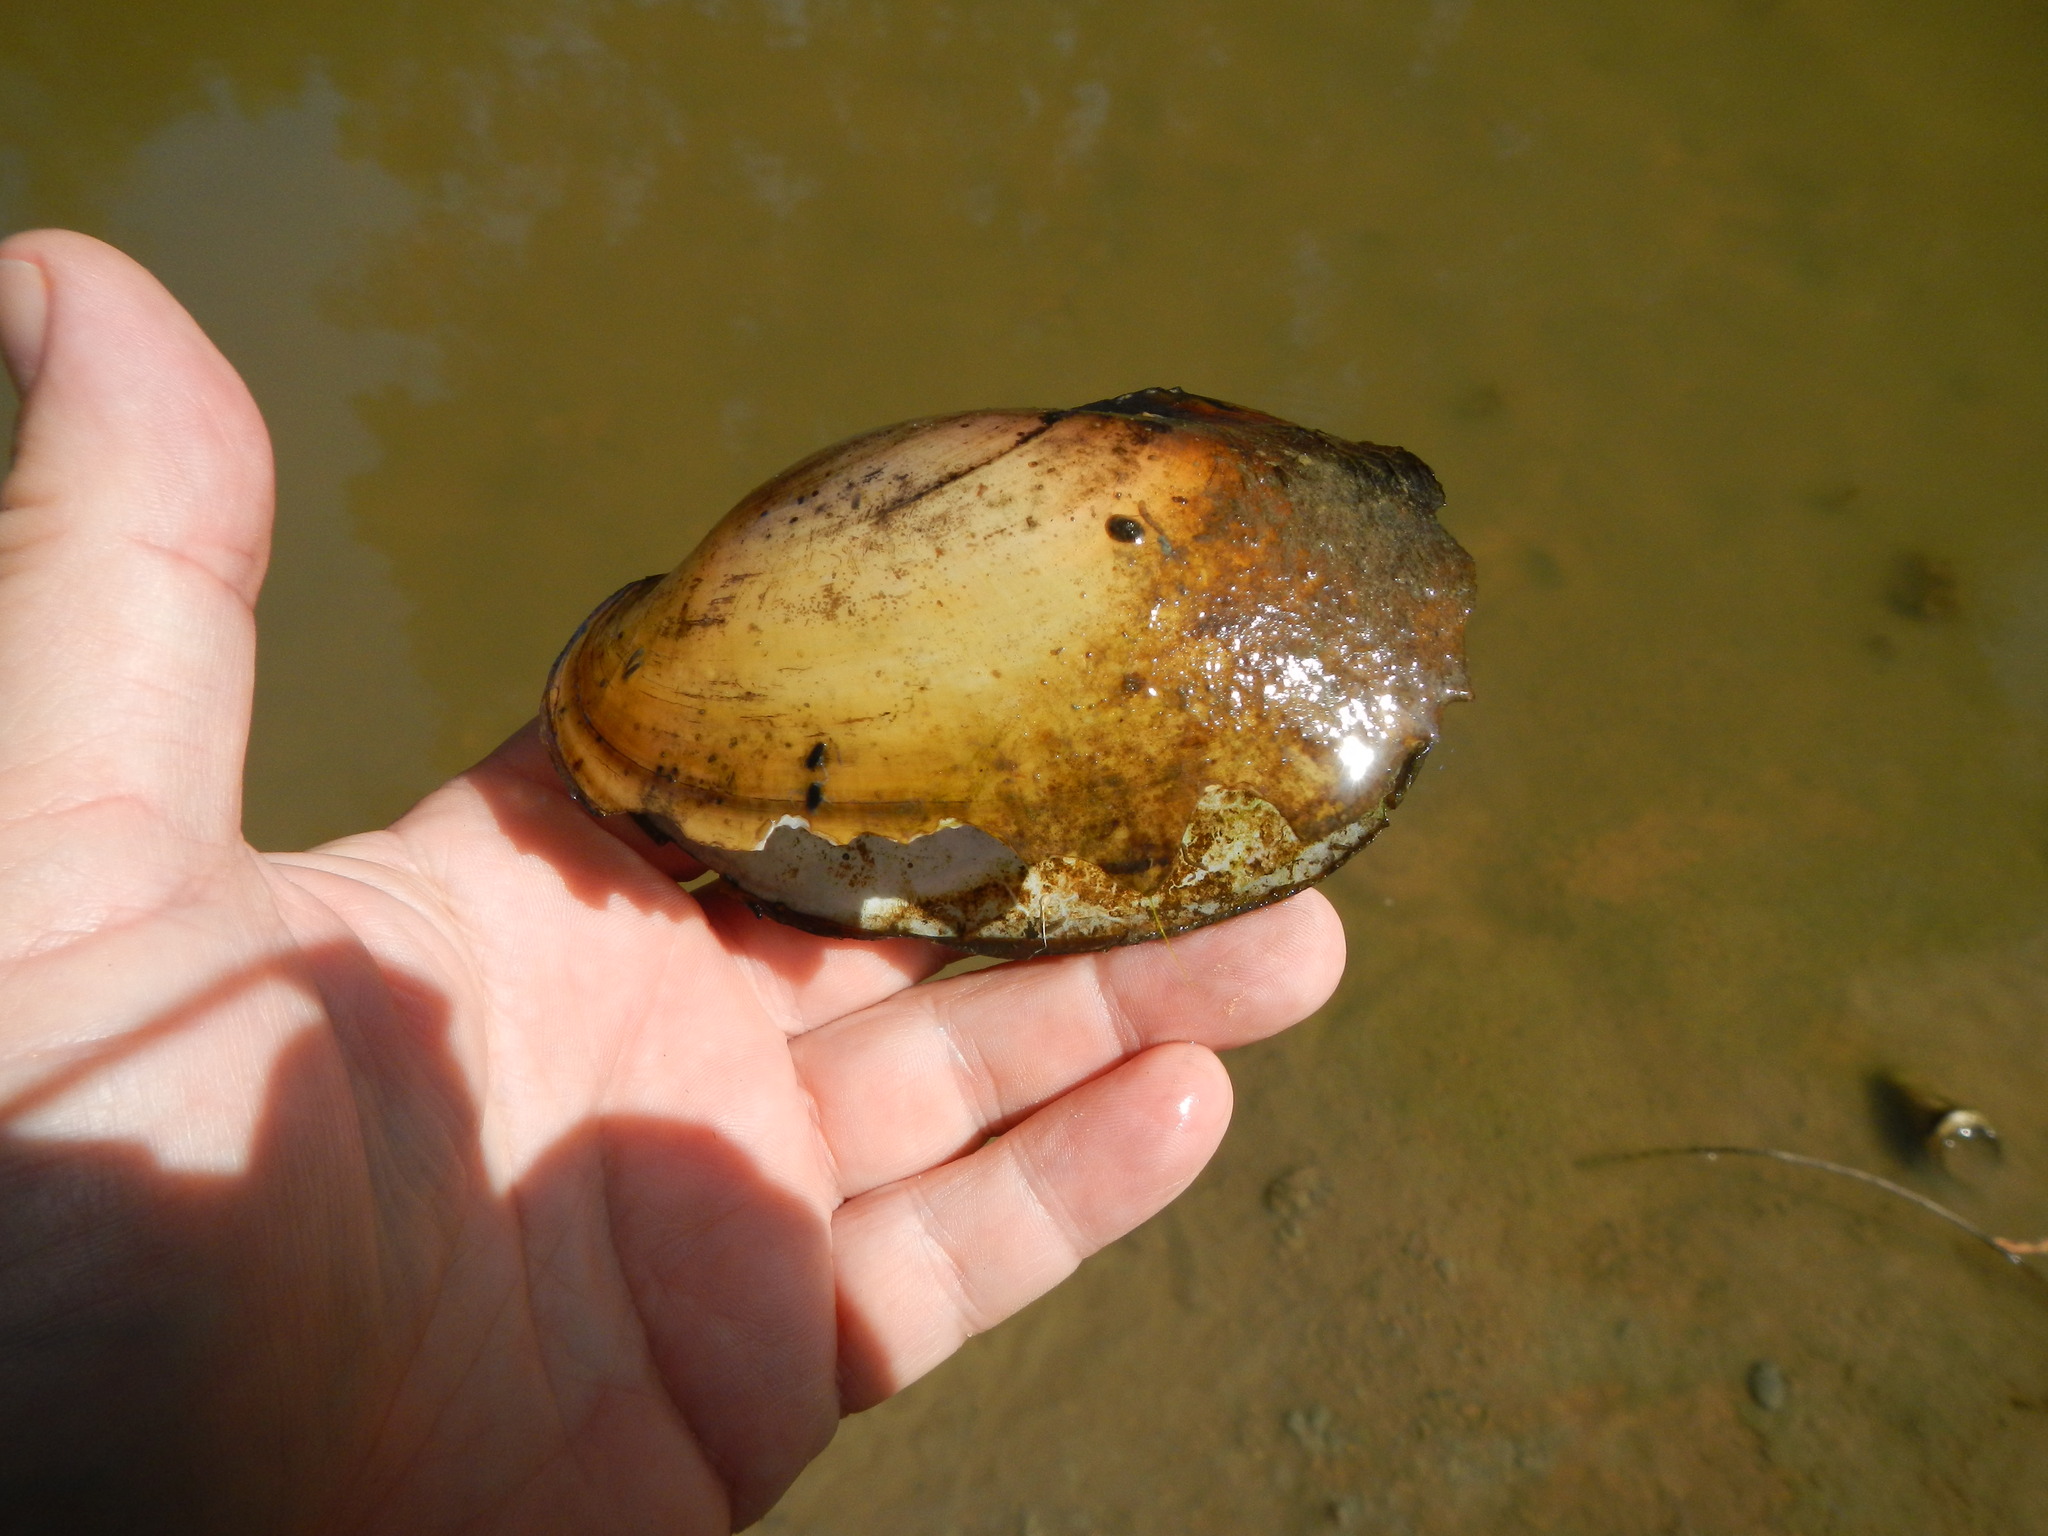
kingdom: Animalia
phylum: Mollusca
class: Bivalvia
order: Unionida
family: Unionidae
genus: Potamilus
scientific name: Potamilus fragilis
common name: Fragile papershell
